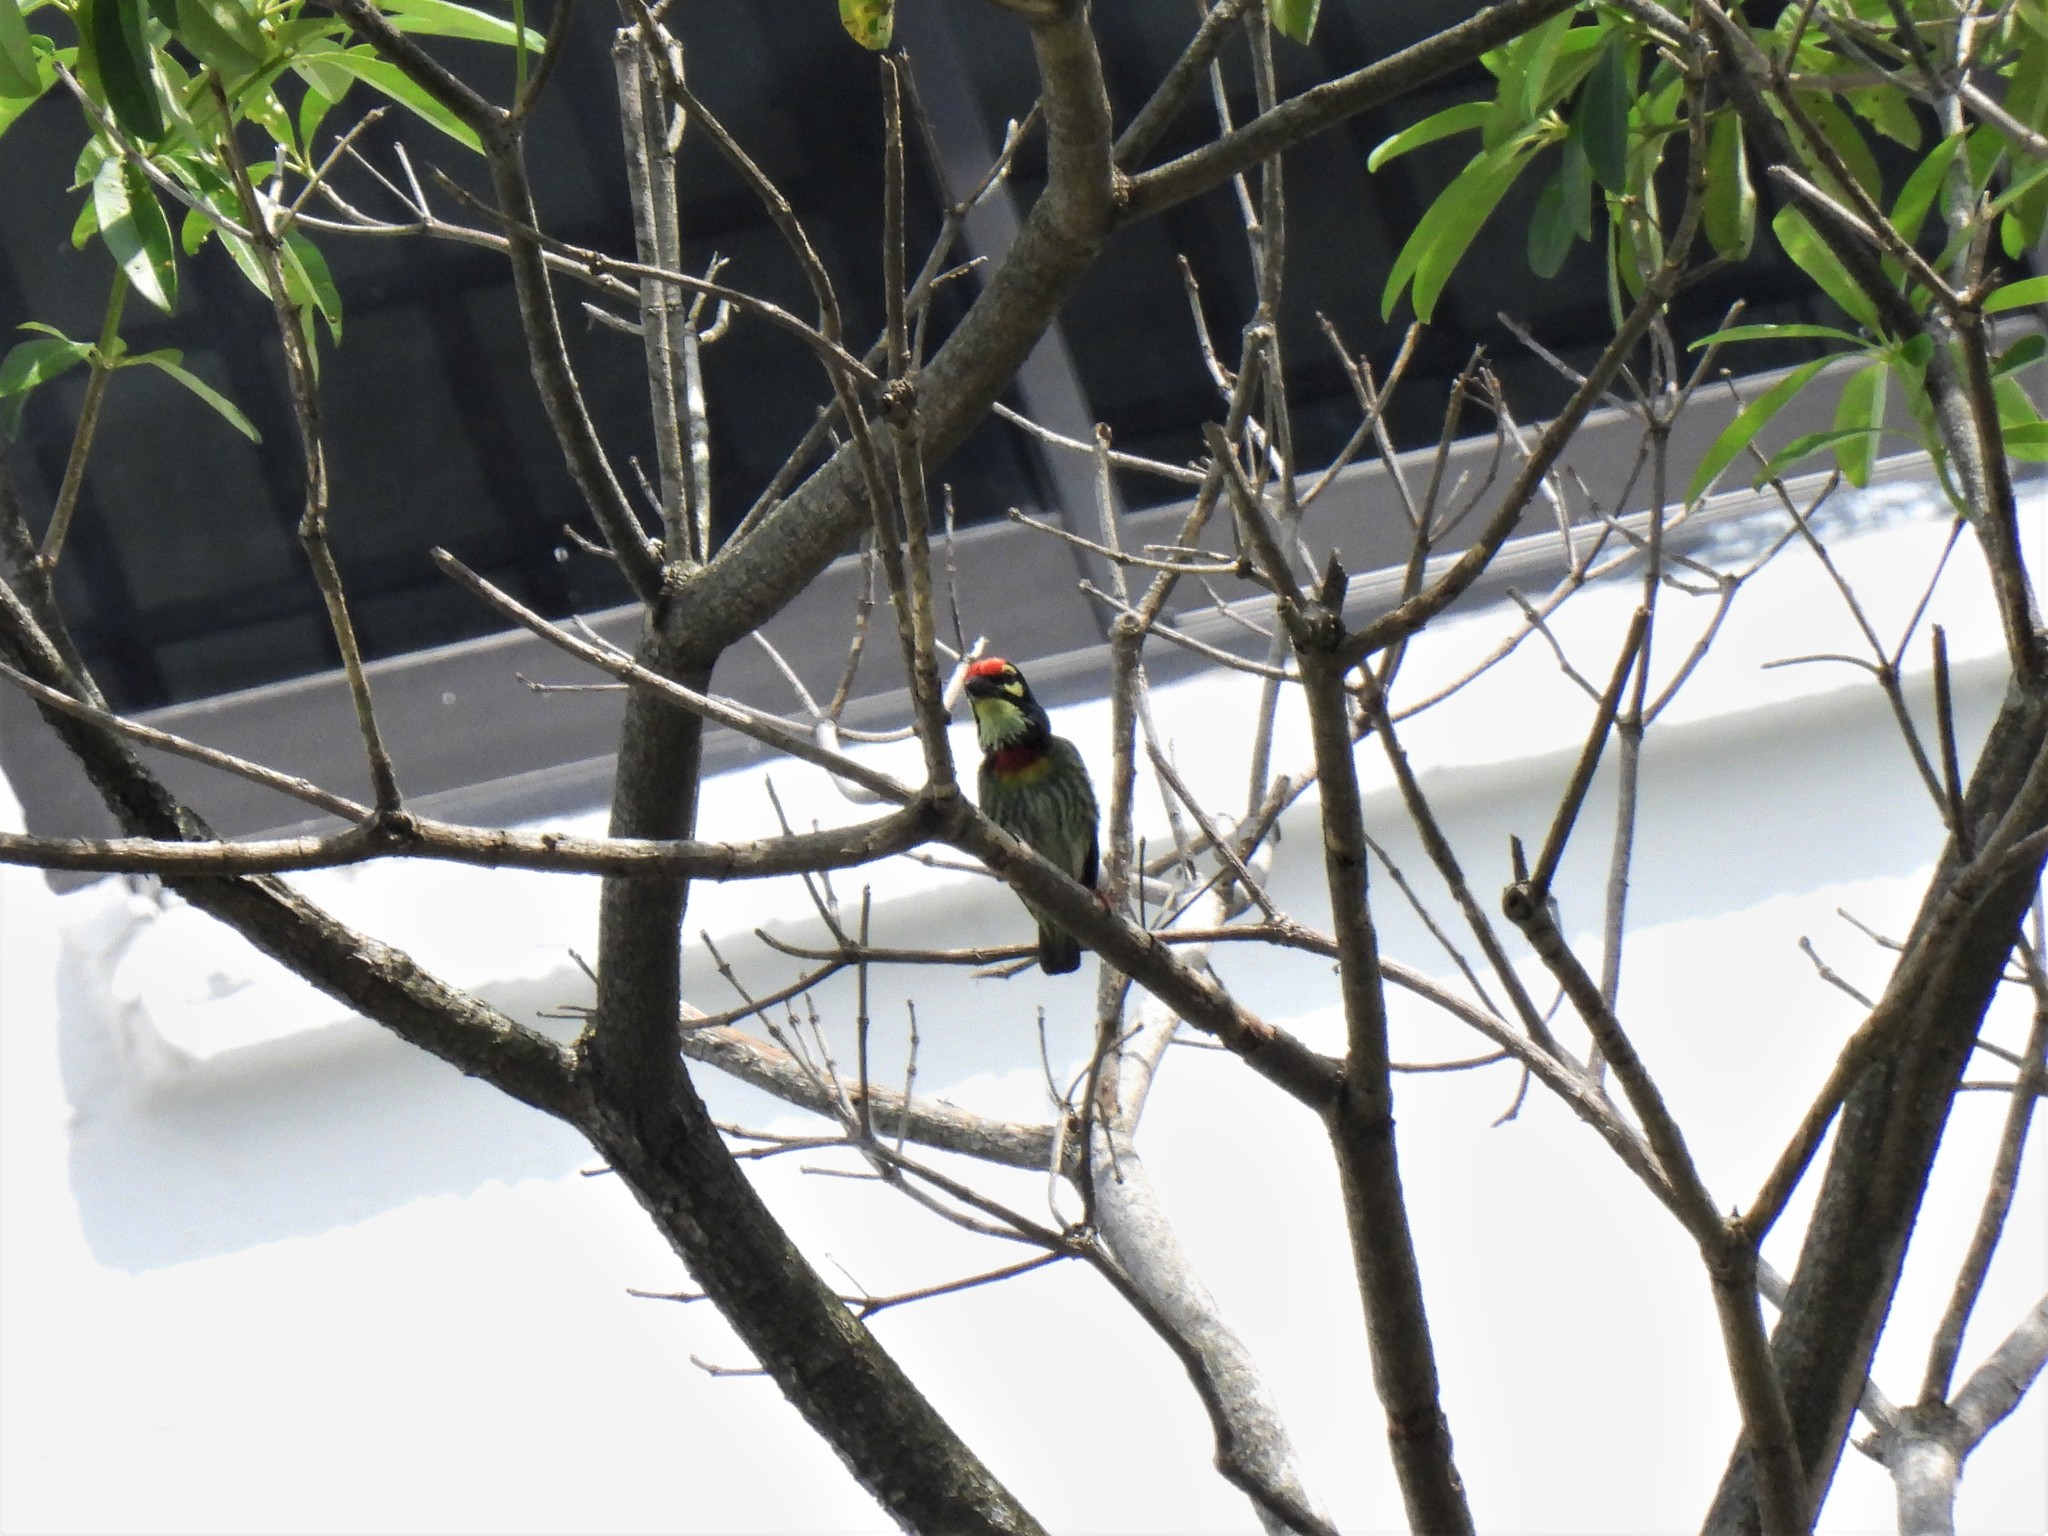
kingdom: Animalia
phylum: Chordata
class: Aves
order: Piciformes
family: Megalaimidae
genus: Psilopogon
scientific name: Psilopogon haemacephalus
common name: Coppersmith barbet
